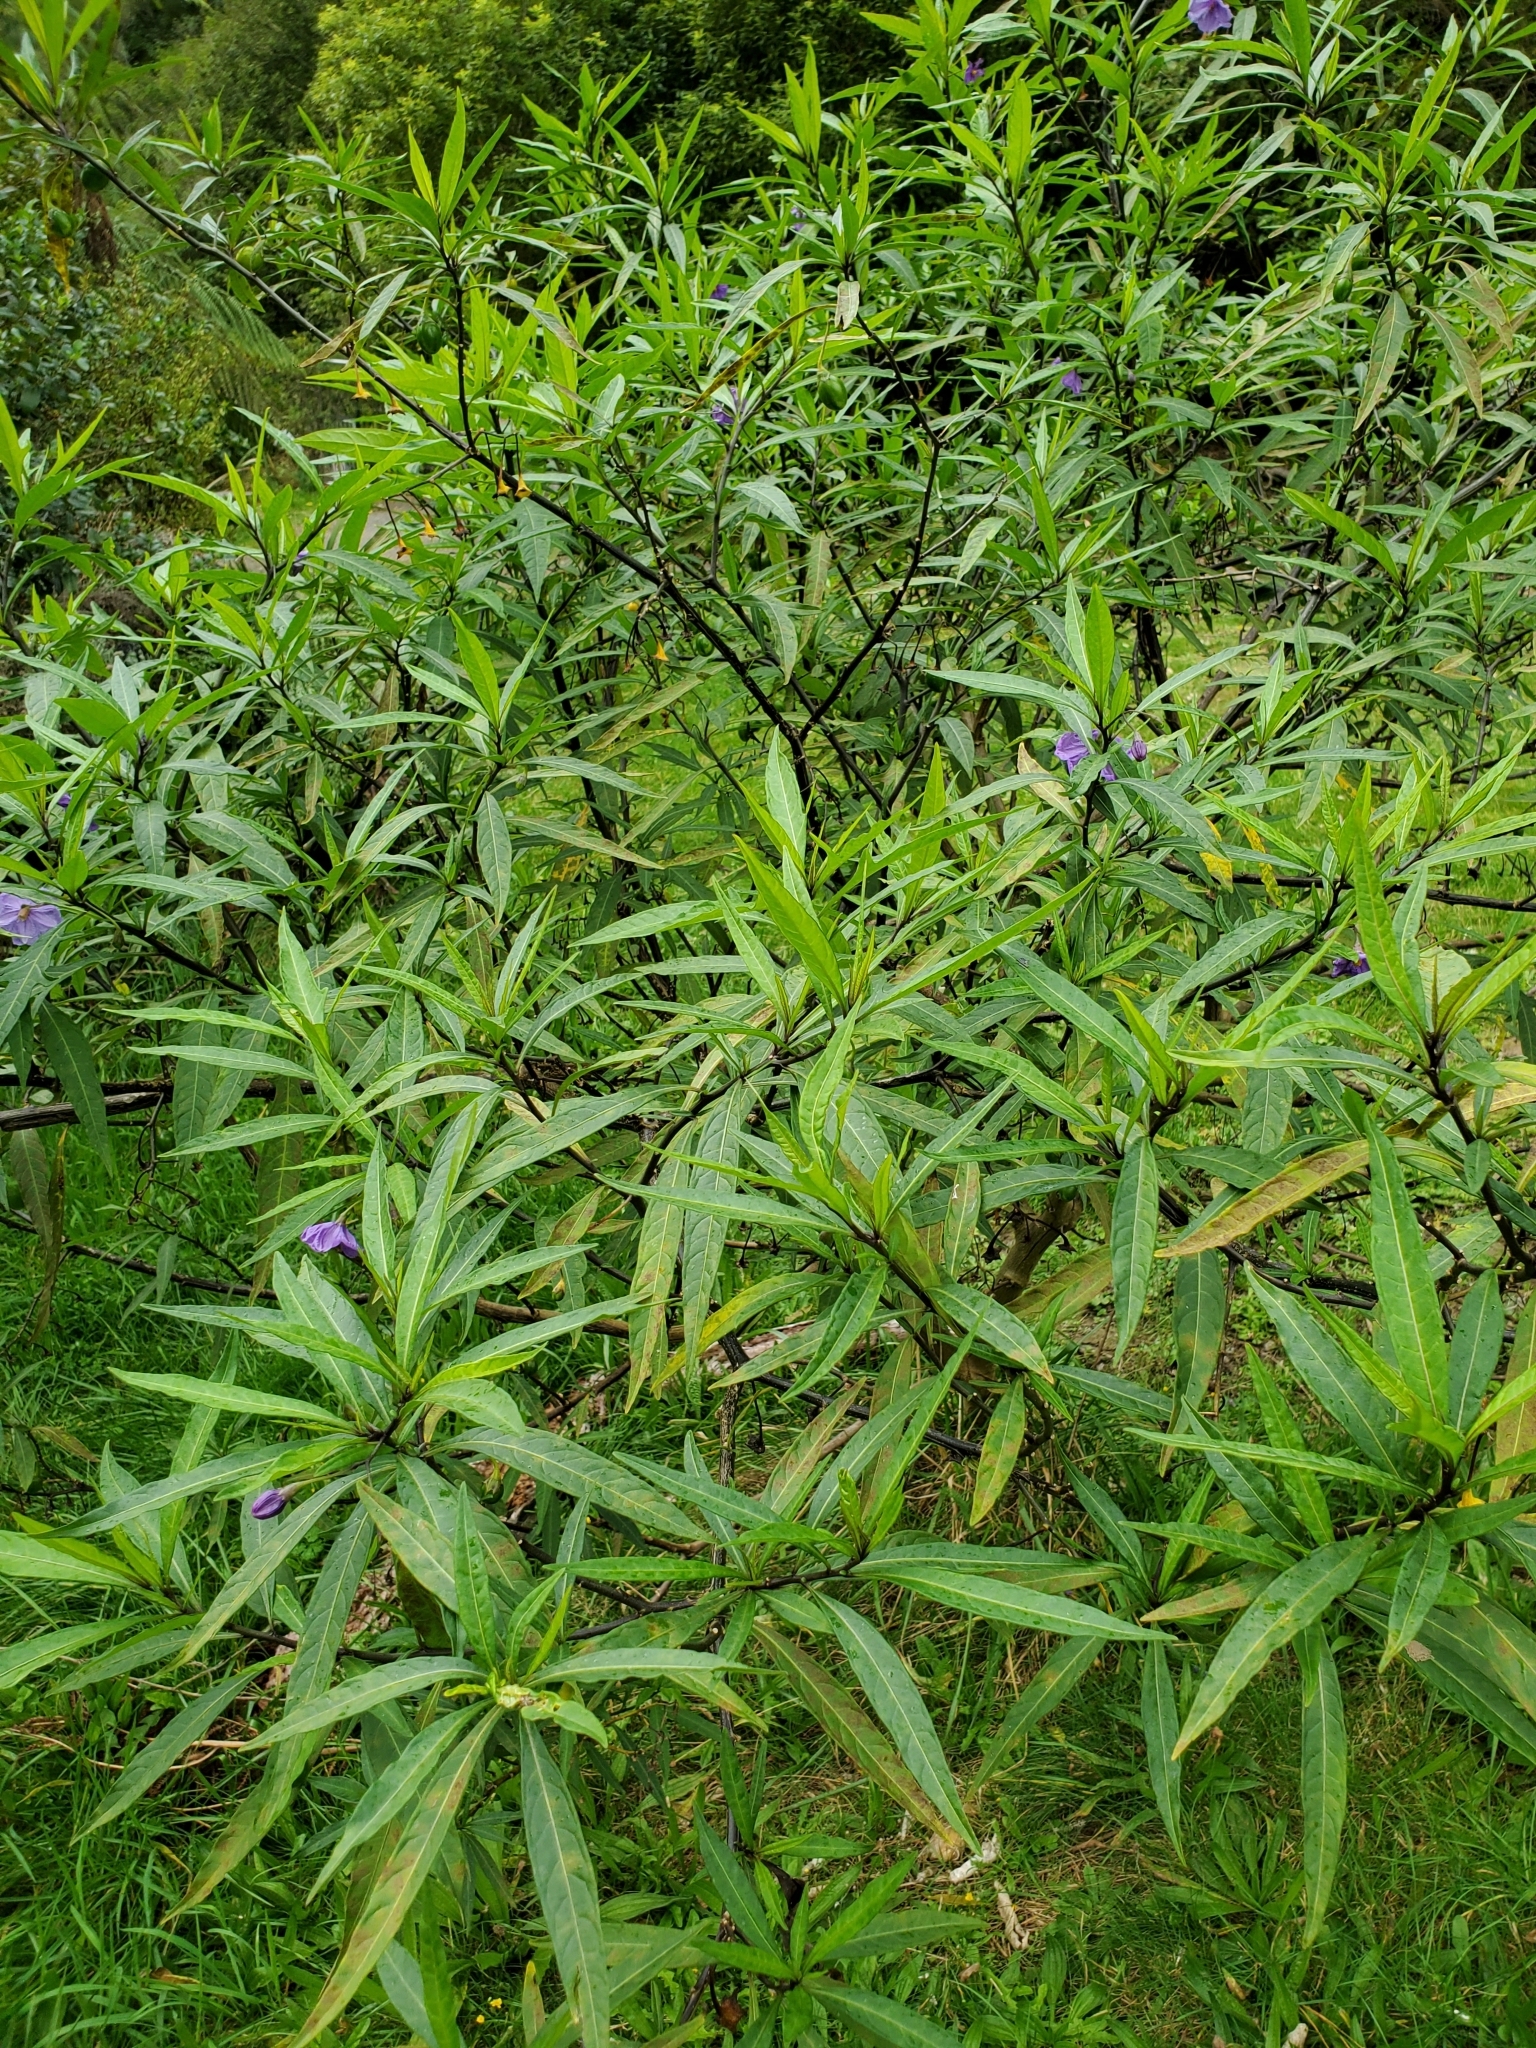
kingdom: Plantae
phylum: Tracheophyta
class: Magnoliopsida
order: Solanales
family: Solanaceae
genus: Solanum
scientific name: Solanum laciniatum
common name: Kangaroo-apple
